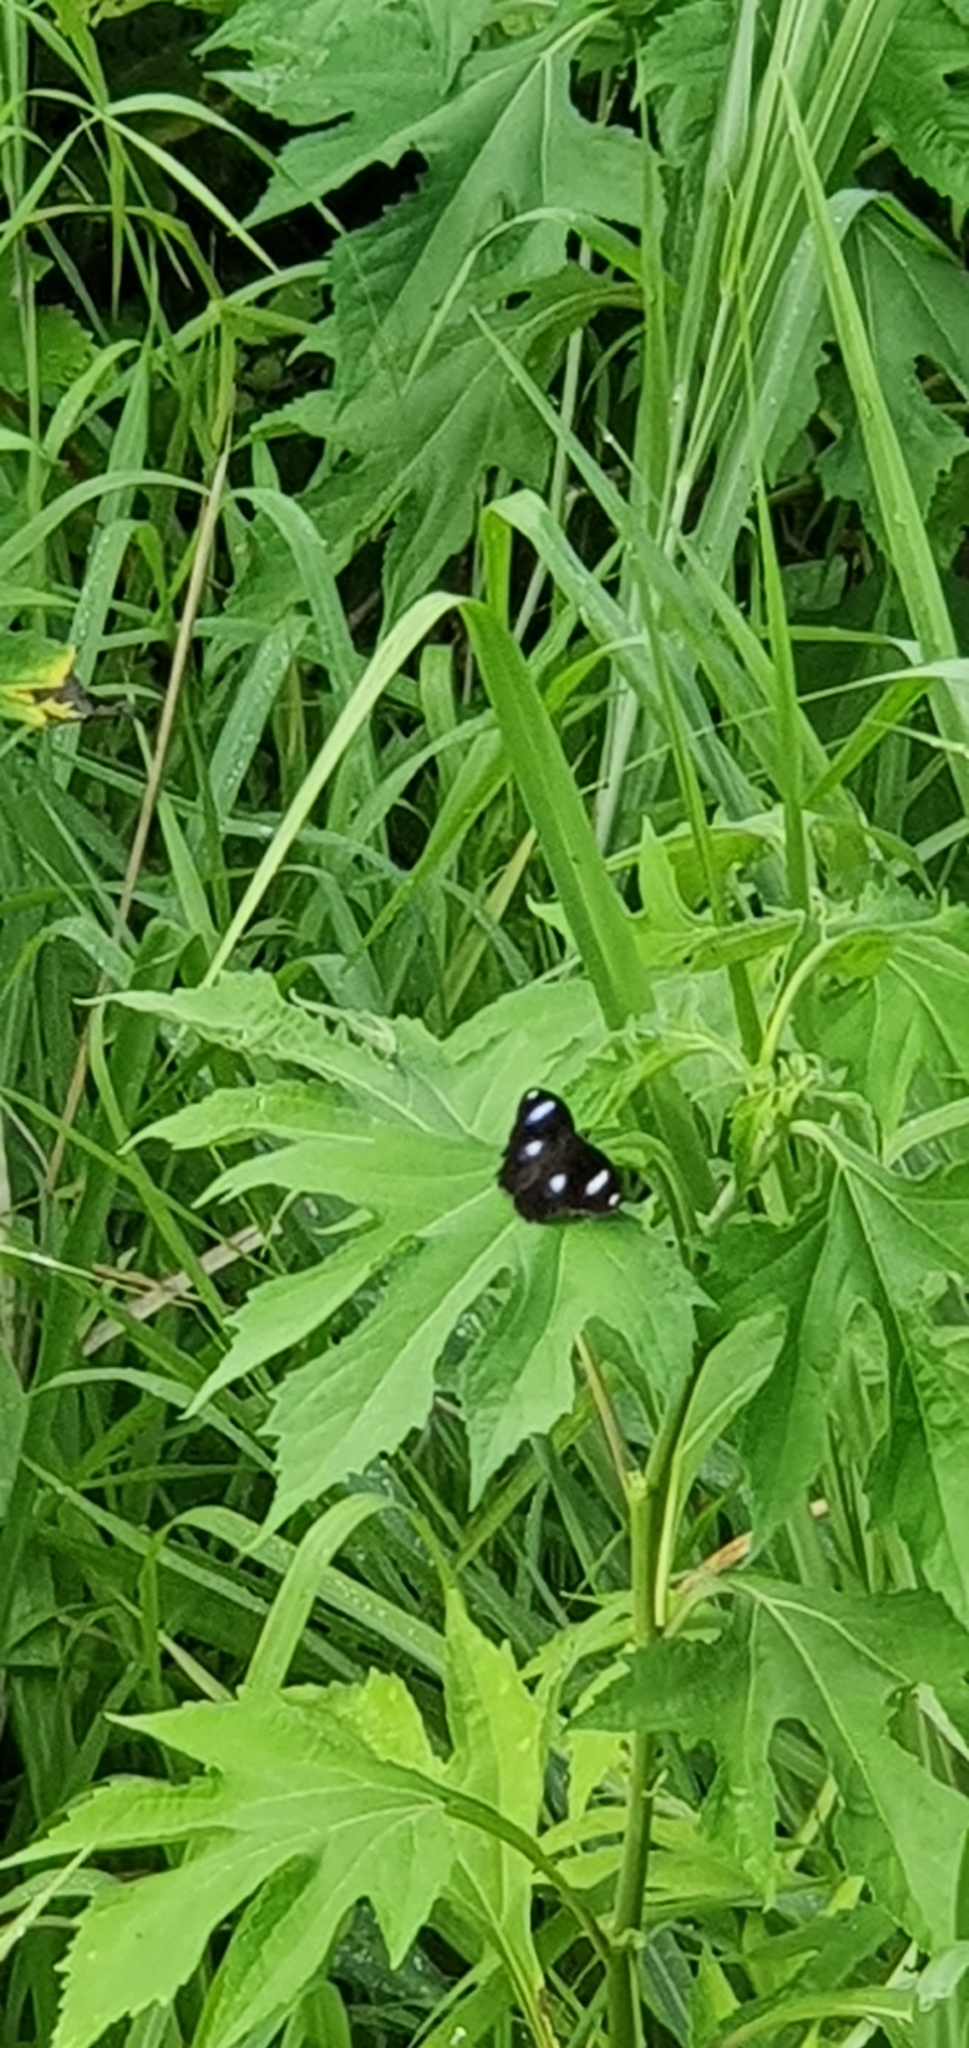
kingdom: Animalia
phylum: Arthropoda
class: Insecta
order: Lepidoptera
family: Nymphalidae
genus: Hypolimnas
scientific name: Hypolimnas bolina
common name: Great eggfly
